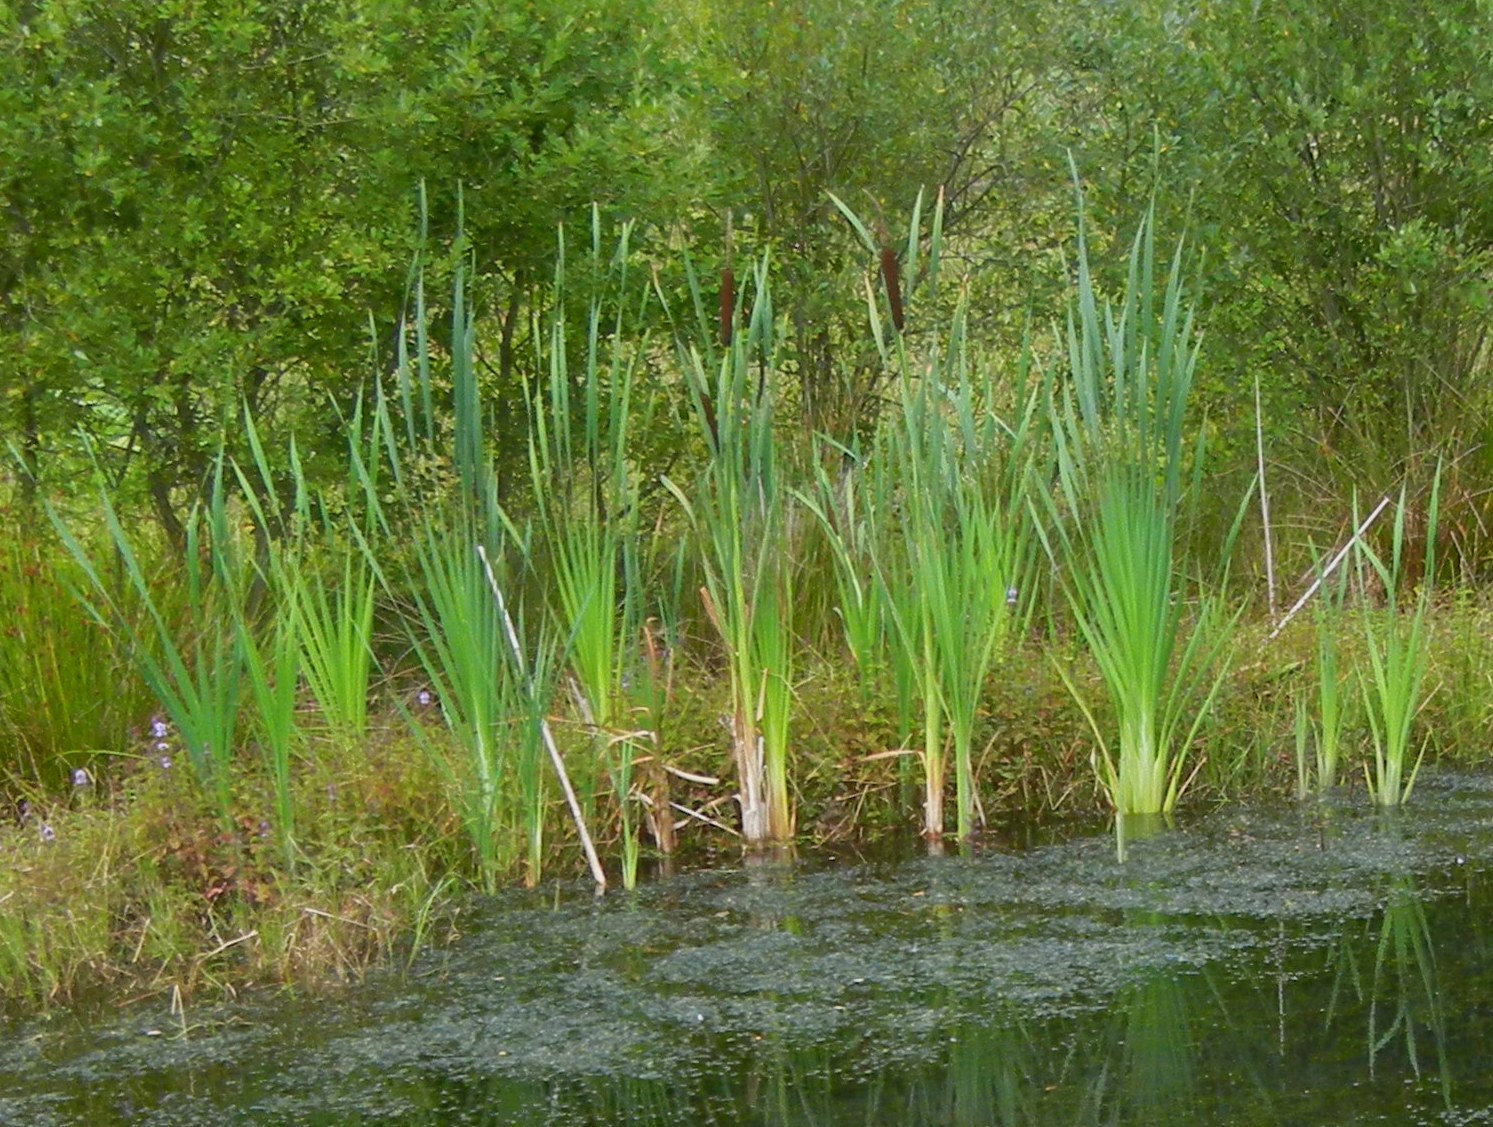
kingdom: Plantae
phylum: Tracheophyta
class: Liliopsida
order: Poales
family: Typhaceae
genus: Typha
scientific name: Typha latifolia
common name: Broadleaf cattail
